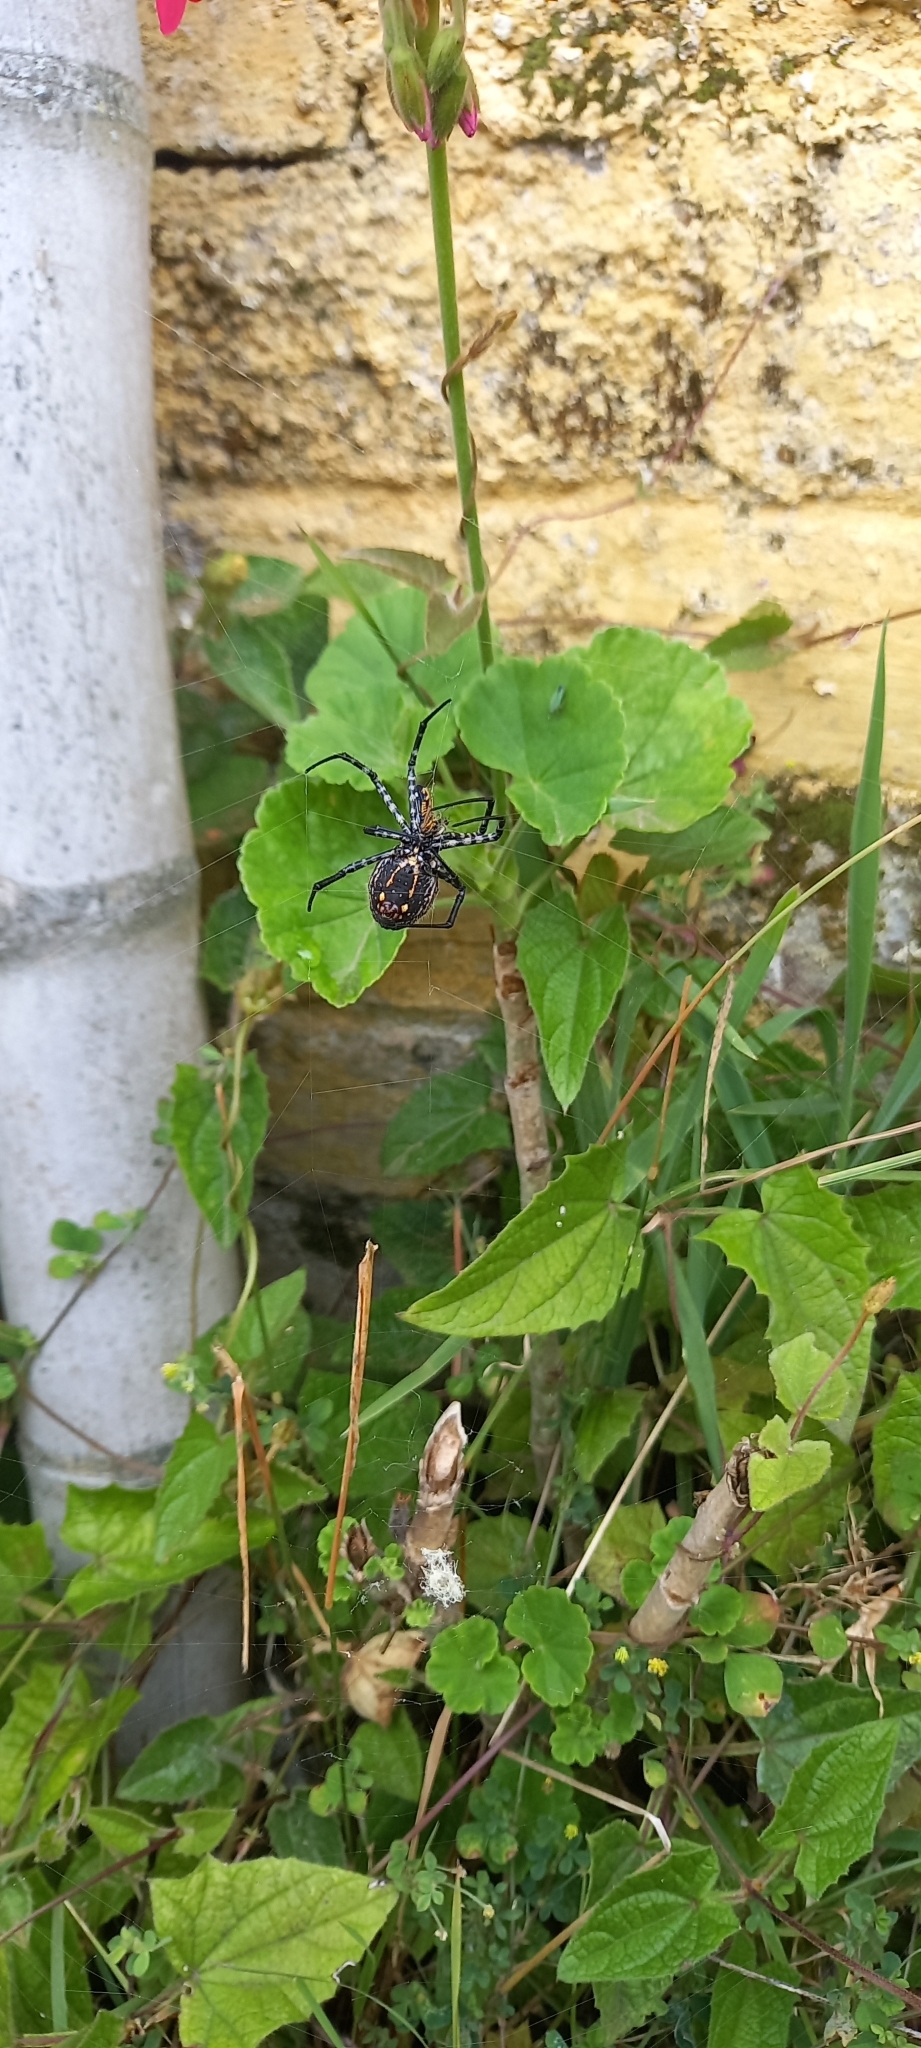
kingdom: Animalia
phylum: Arthropoda
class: Arachnida
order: Araneae
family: Araneidae
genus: Argiope
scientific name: Argiope trifasciata
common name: Banded garden spider
